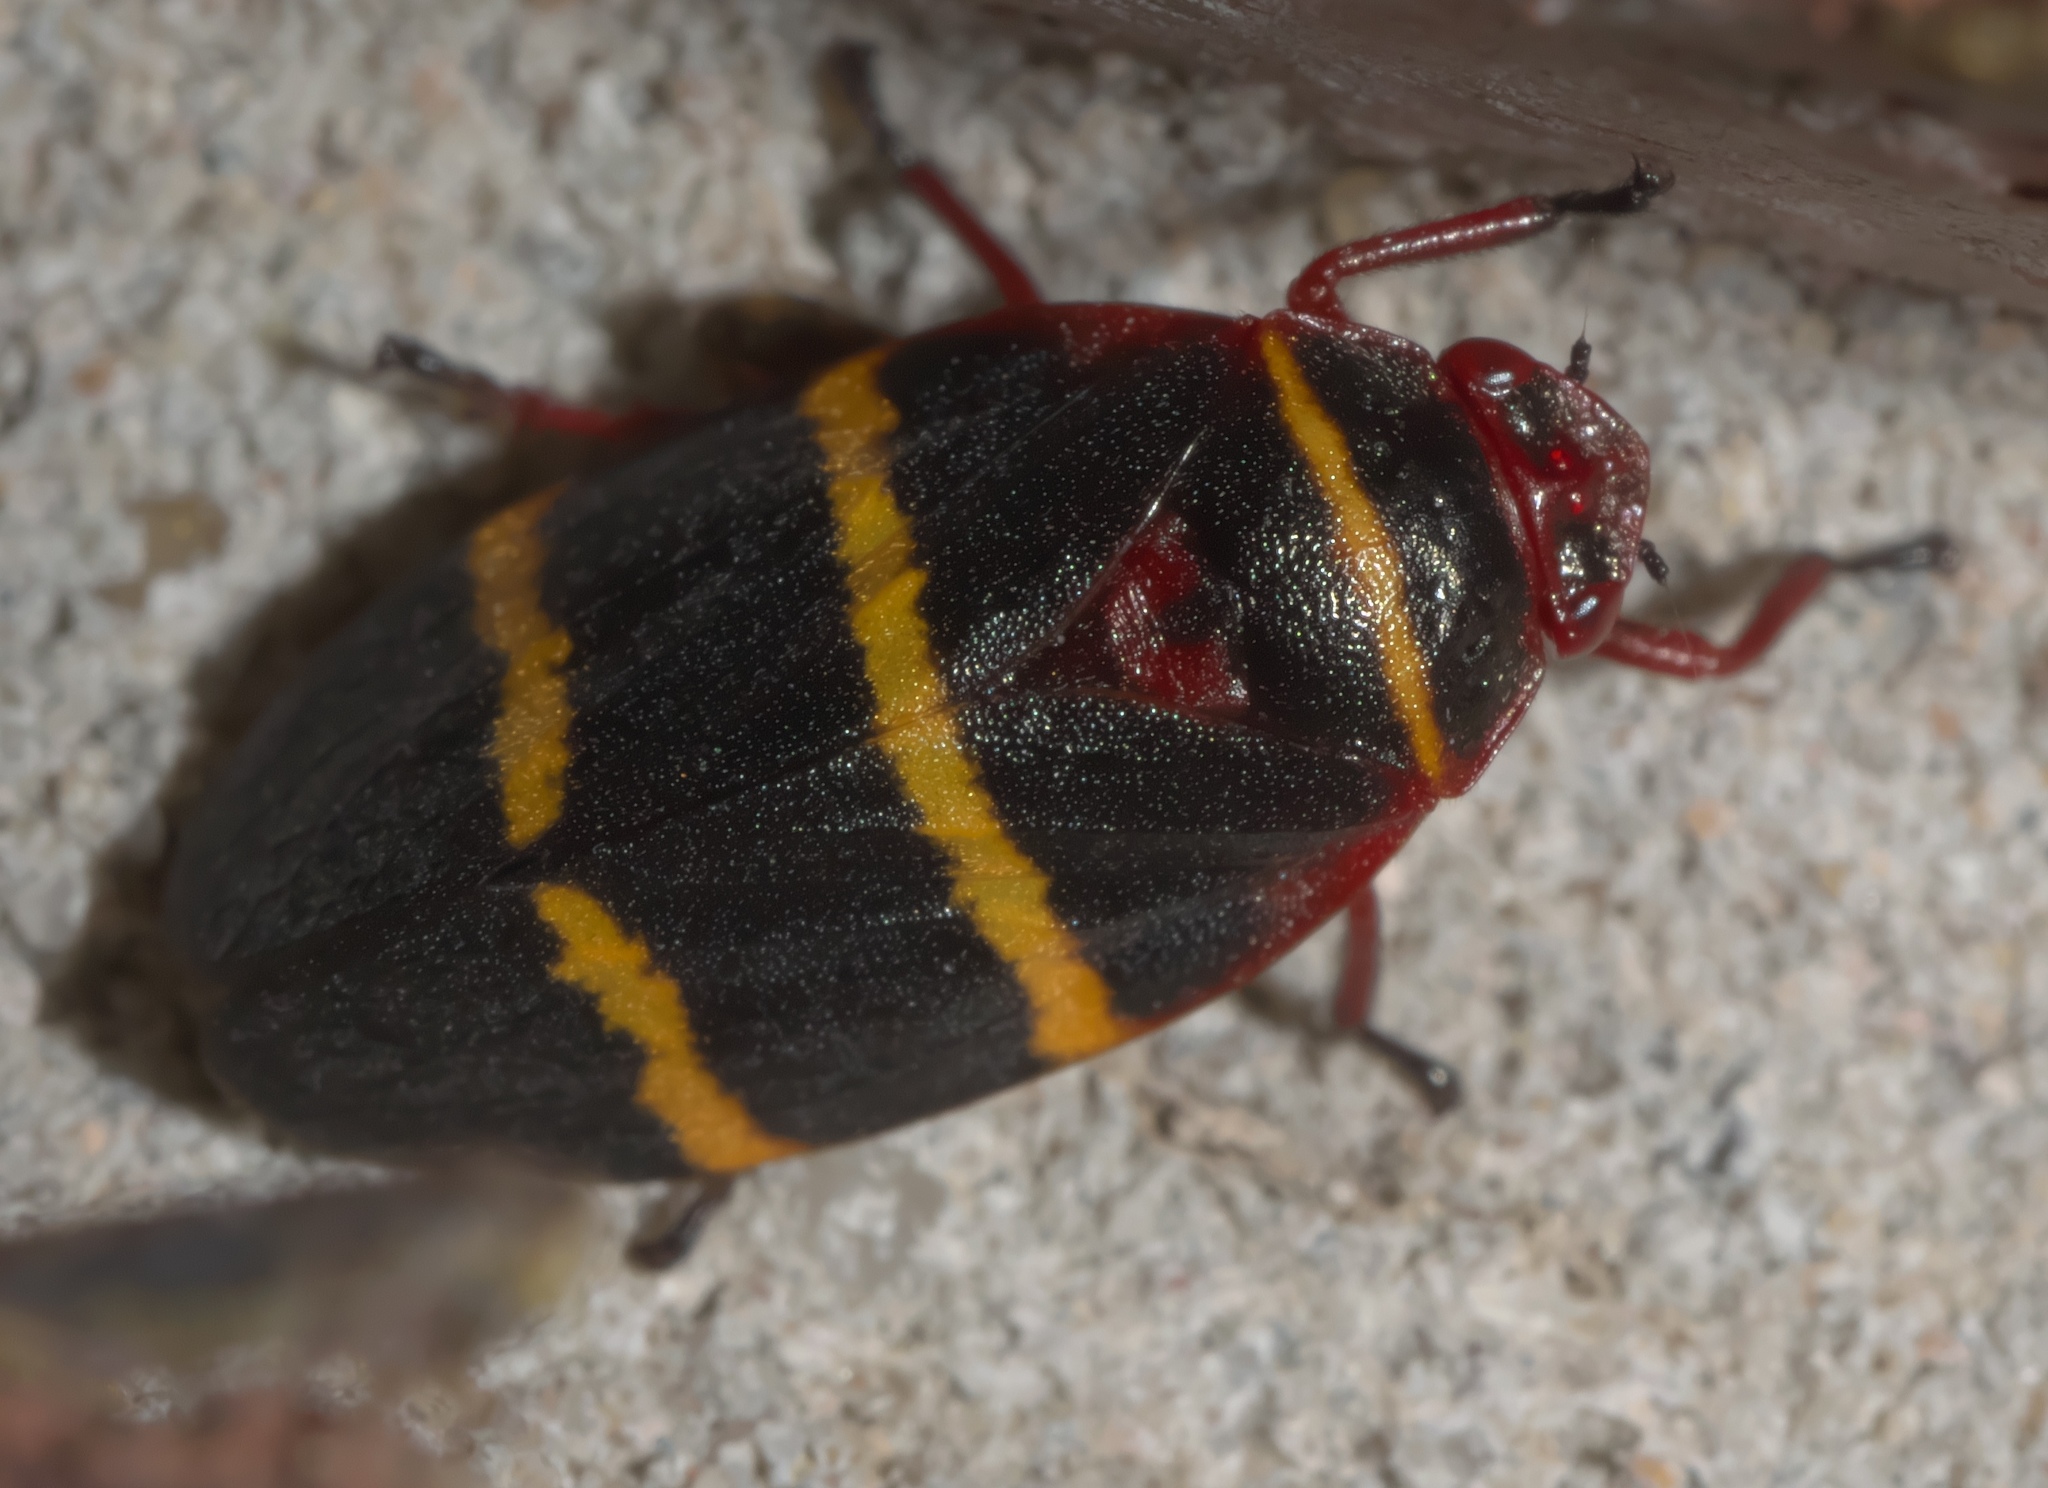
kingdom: Animalia
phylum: Arthropoda
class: Insecta
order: Hemiptera
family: Cercopidae
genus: Prosapia
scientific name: Prosapia bicincta
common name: Twolined spittlebug
